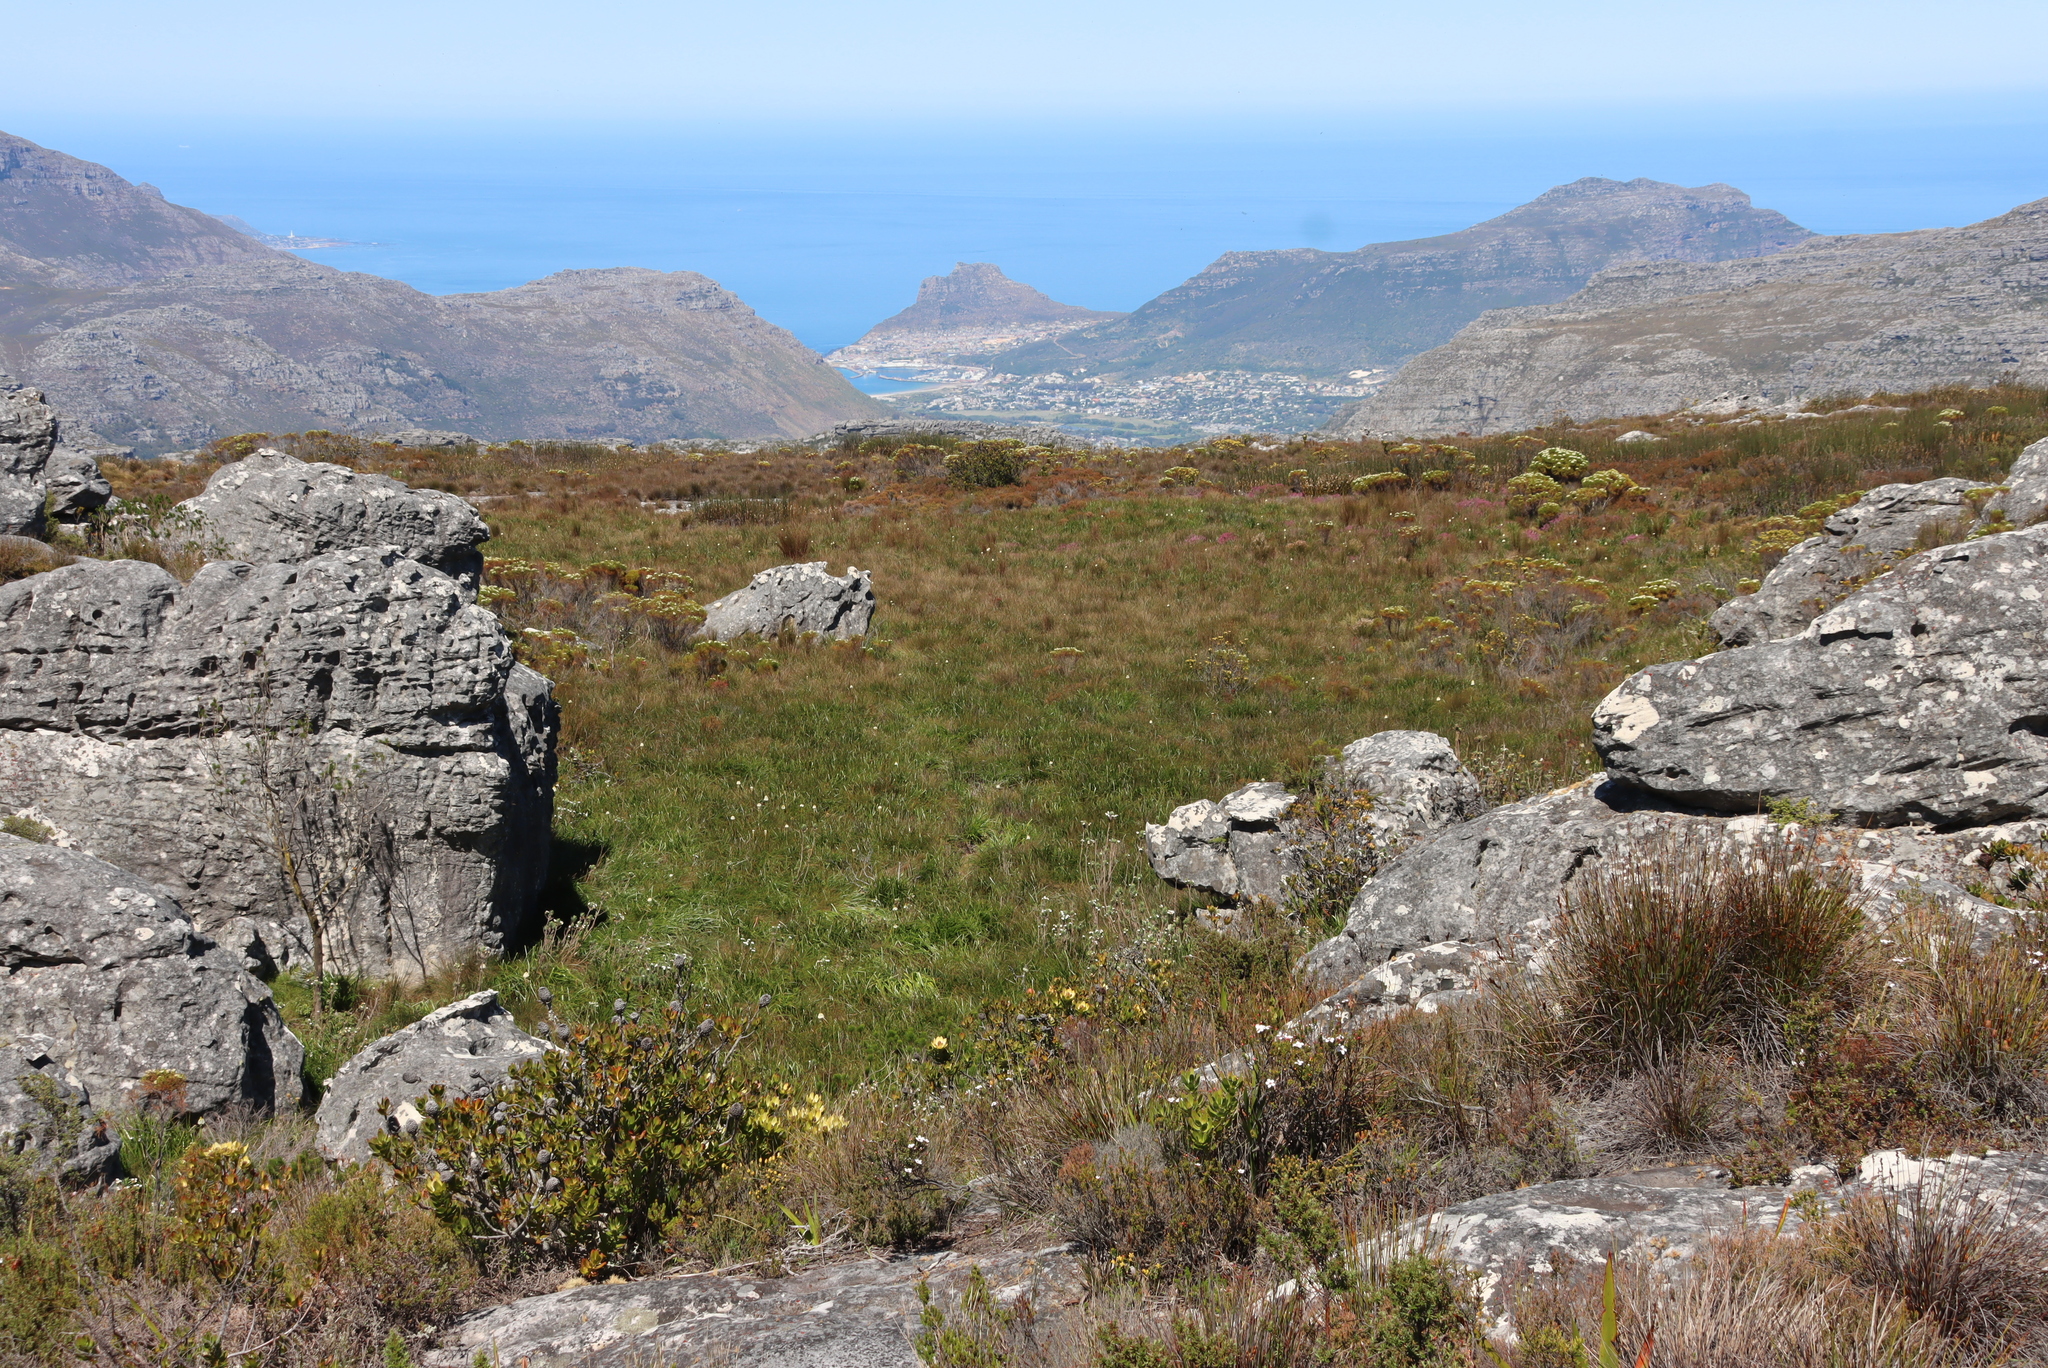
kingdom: Plantae
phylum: Tracheophyta
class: Liliopsida
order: Asparagales
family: Asphodelaceae
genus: Bulbinella
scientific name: Bulbinella nutans
